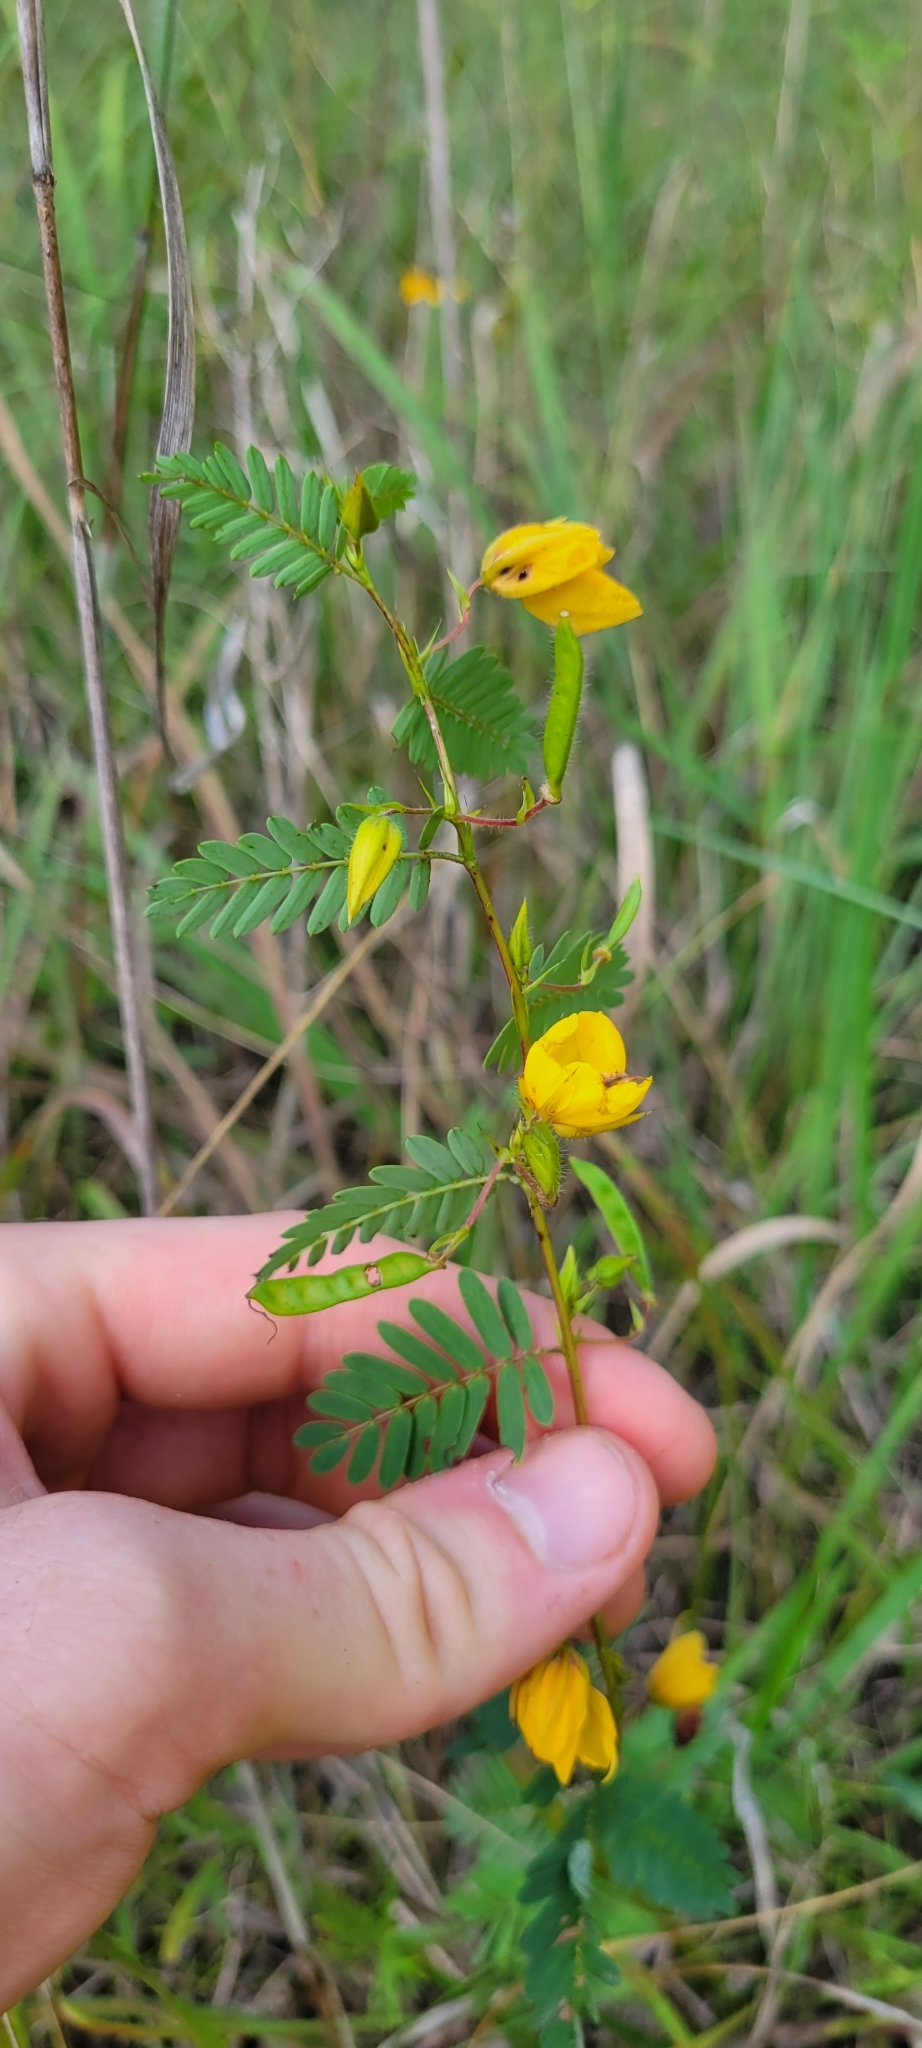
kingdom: Plantae
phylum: Tracheophyta
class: Magnoliopsida
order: Fabales
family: Fabaceae
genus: Chamaecrista
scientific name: Chamaecrista fasciculata
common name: Golden cassia
